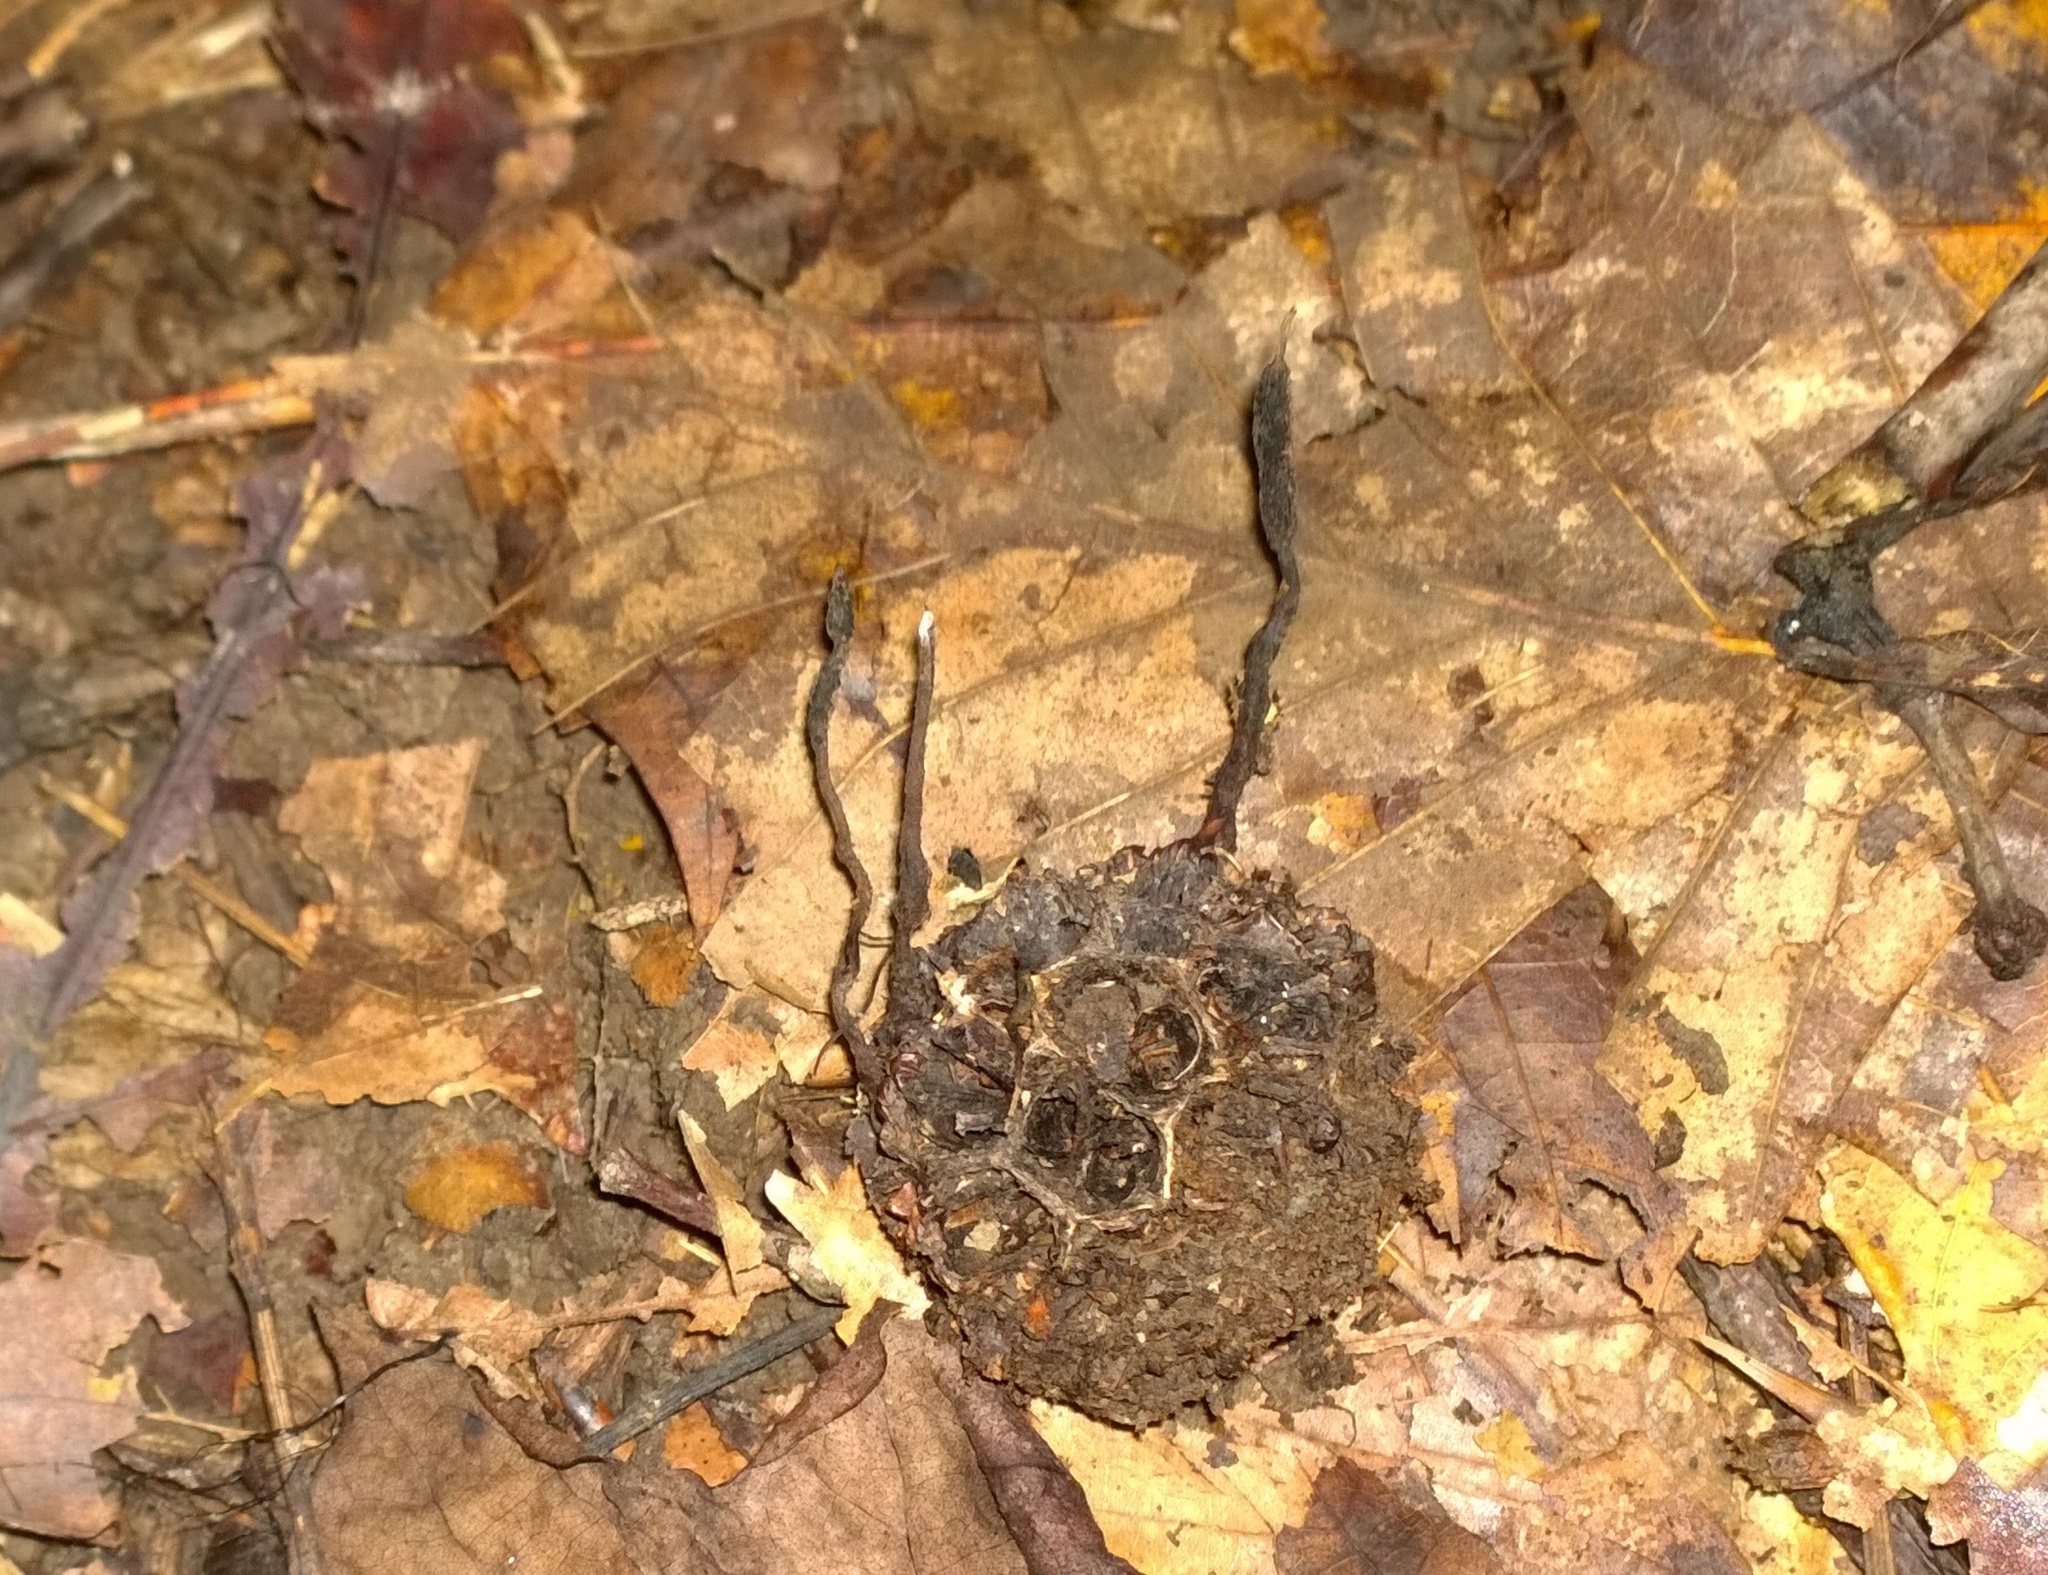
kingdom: Fungi
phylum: Ascomycota
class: Sordariomycetes
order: Xylariales
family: Xylariaceae
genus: Xylaria
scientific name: Xylaria liquidambaris
